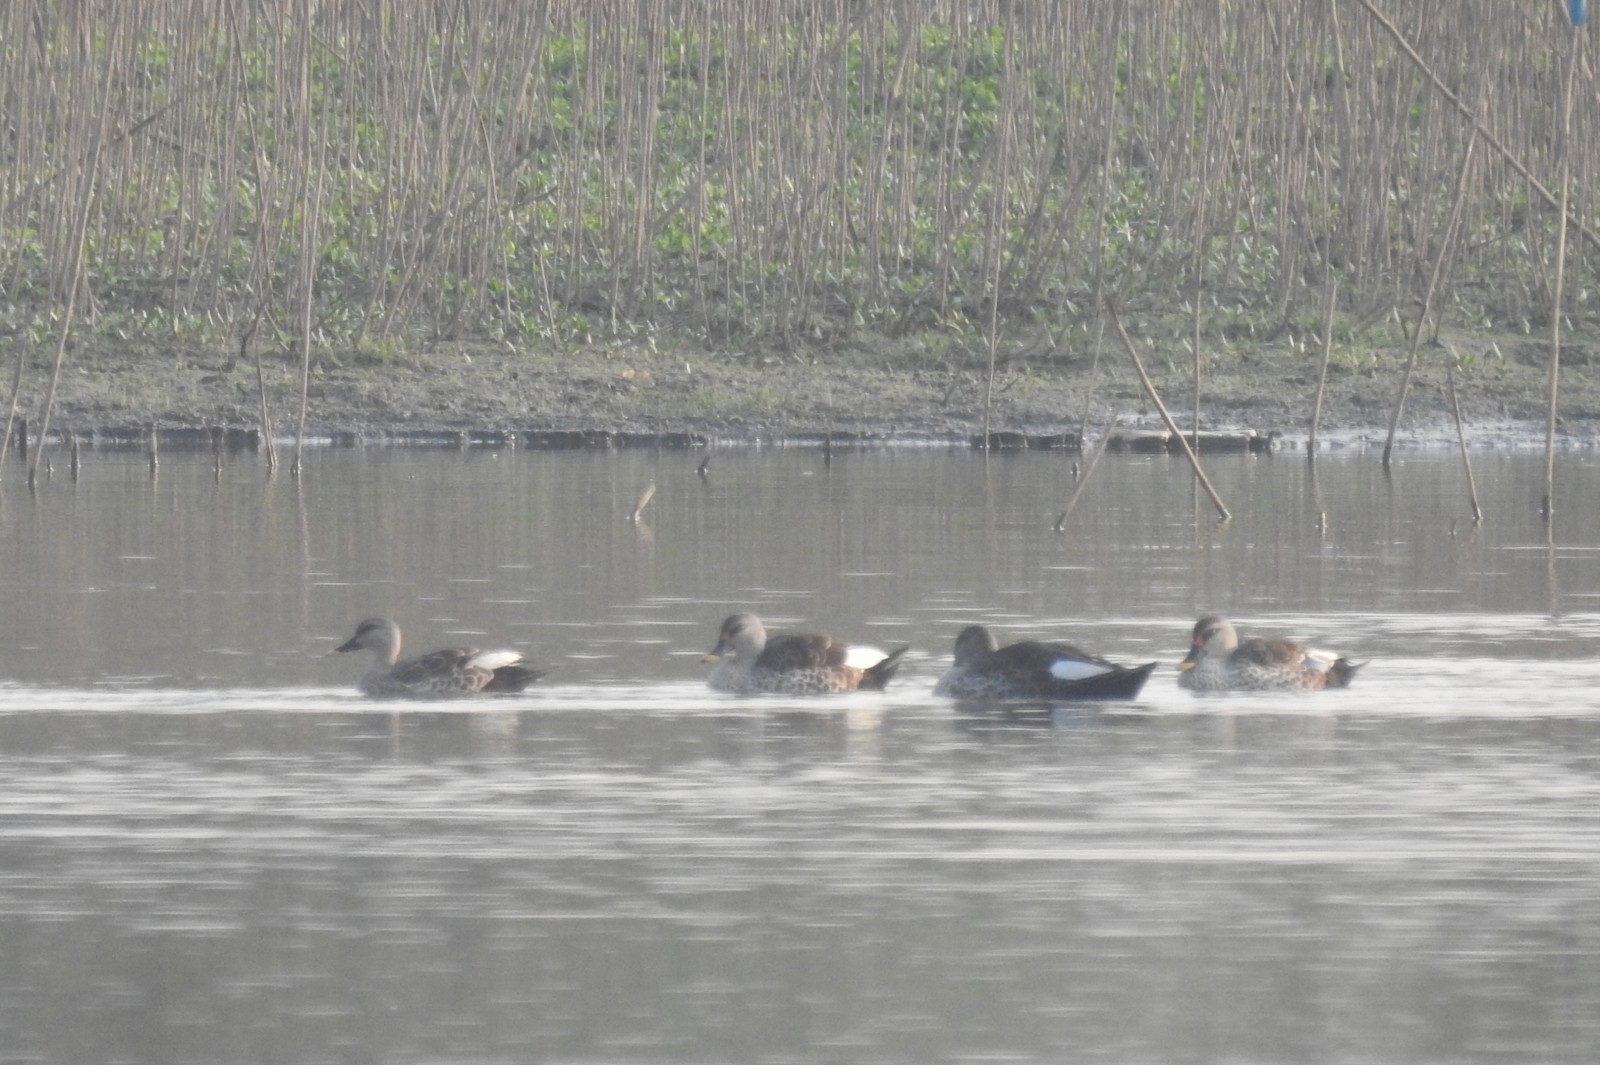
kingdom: Animalia
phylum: Chordata
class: Aves
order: Anseriformes
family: Anatidae
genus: Anas
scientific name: Anas poecilorhyncha
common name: Indian spot-billed duck
